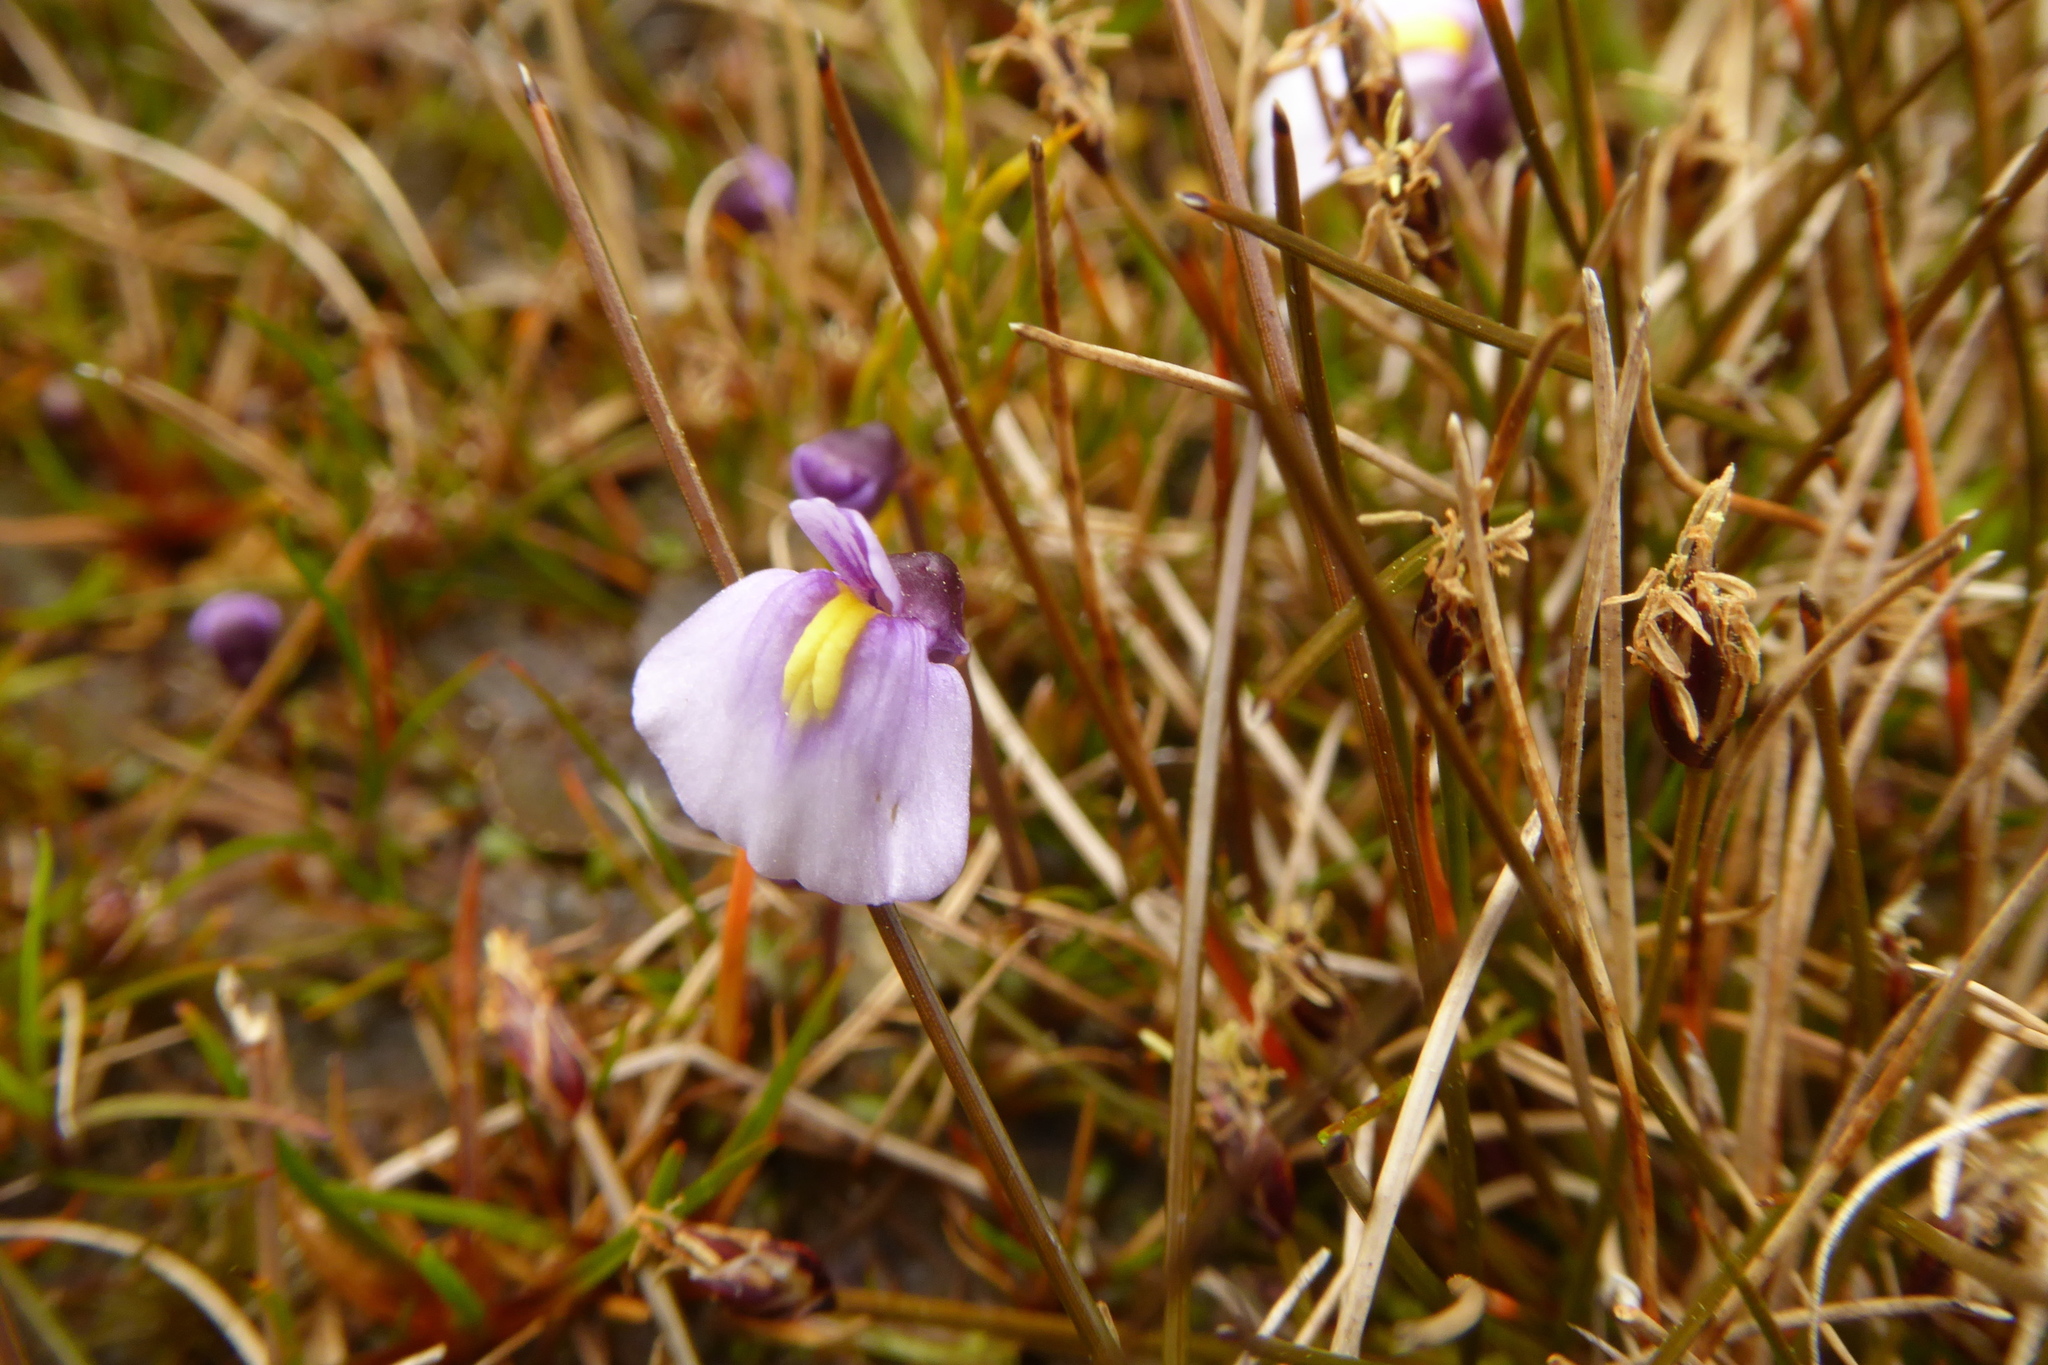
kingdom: Plantae
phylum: Tracheophyta
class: Magnoliopsida
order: Lamiales
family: Lentibulariaceae
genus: Utricularia
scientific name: Utricularia dichotoma
